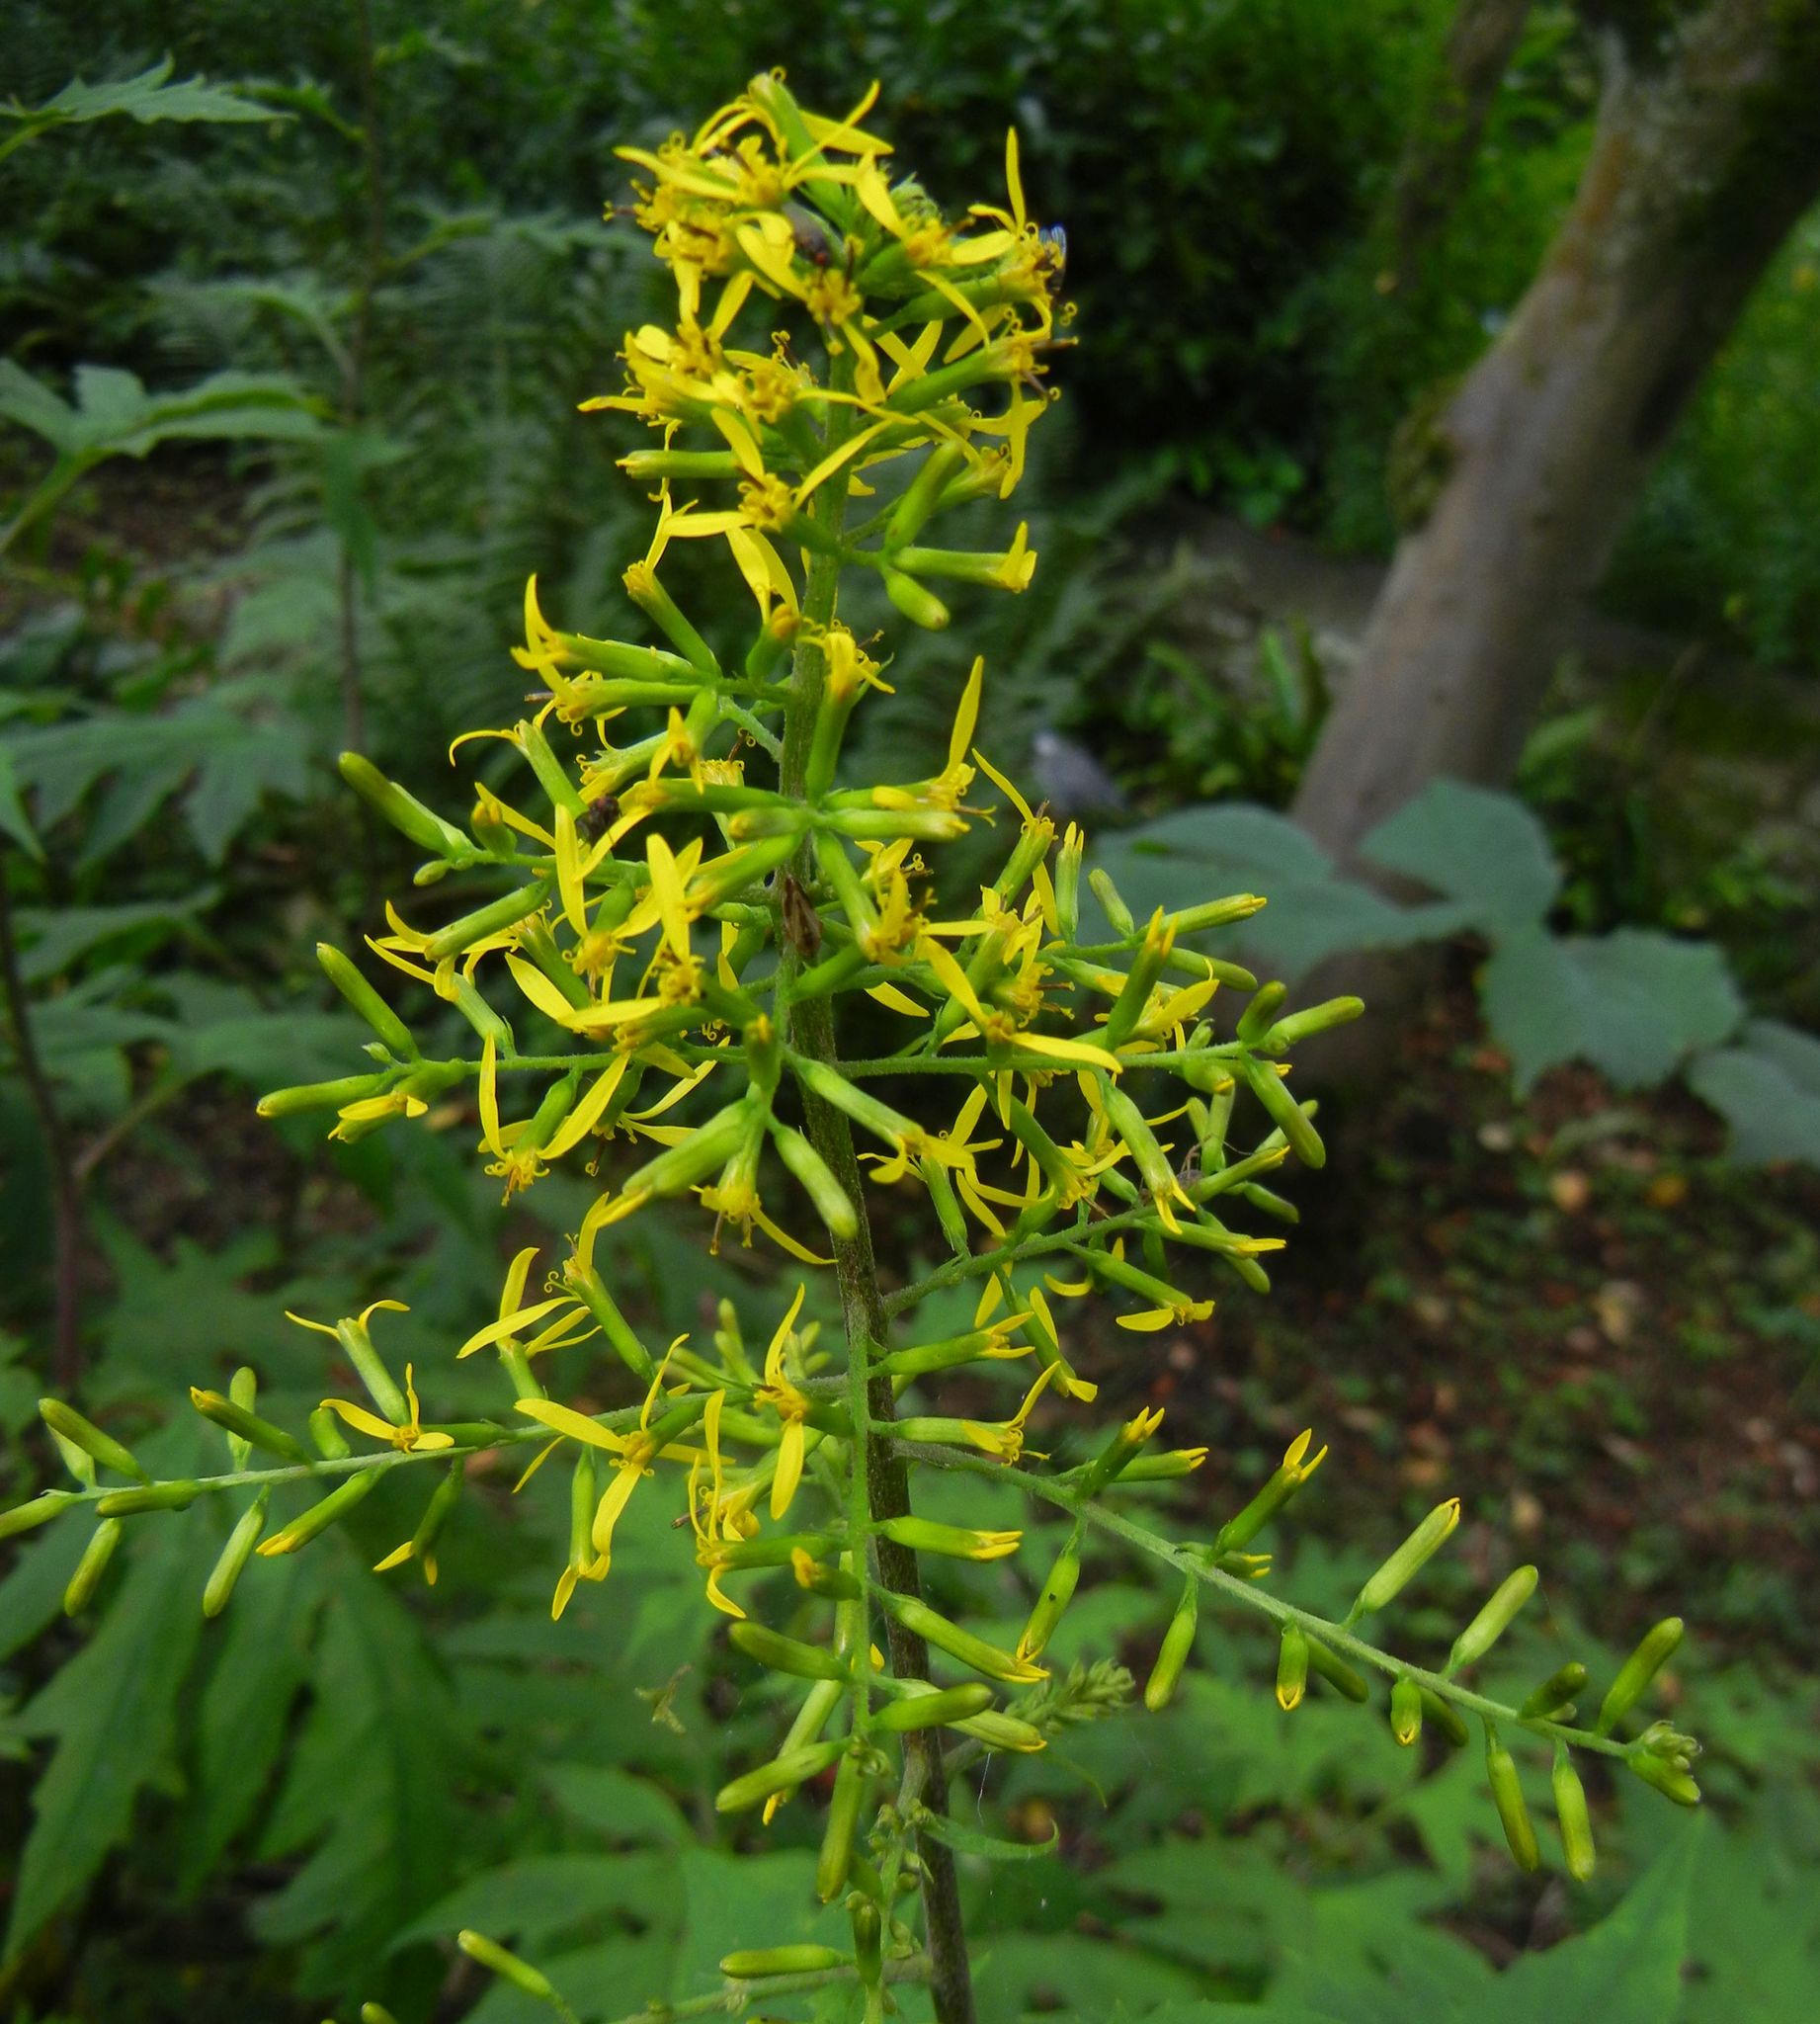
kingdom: Plantae
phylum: Tracheophyta
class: Magnoliopsida
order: Asterales
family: Asteraceae
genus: Sinacalia
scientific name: Sinacalia tangutica
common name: Chinese ragwort
